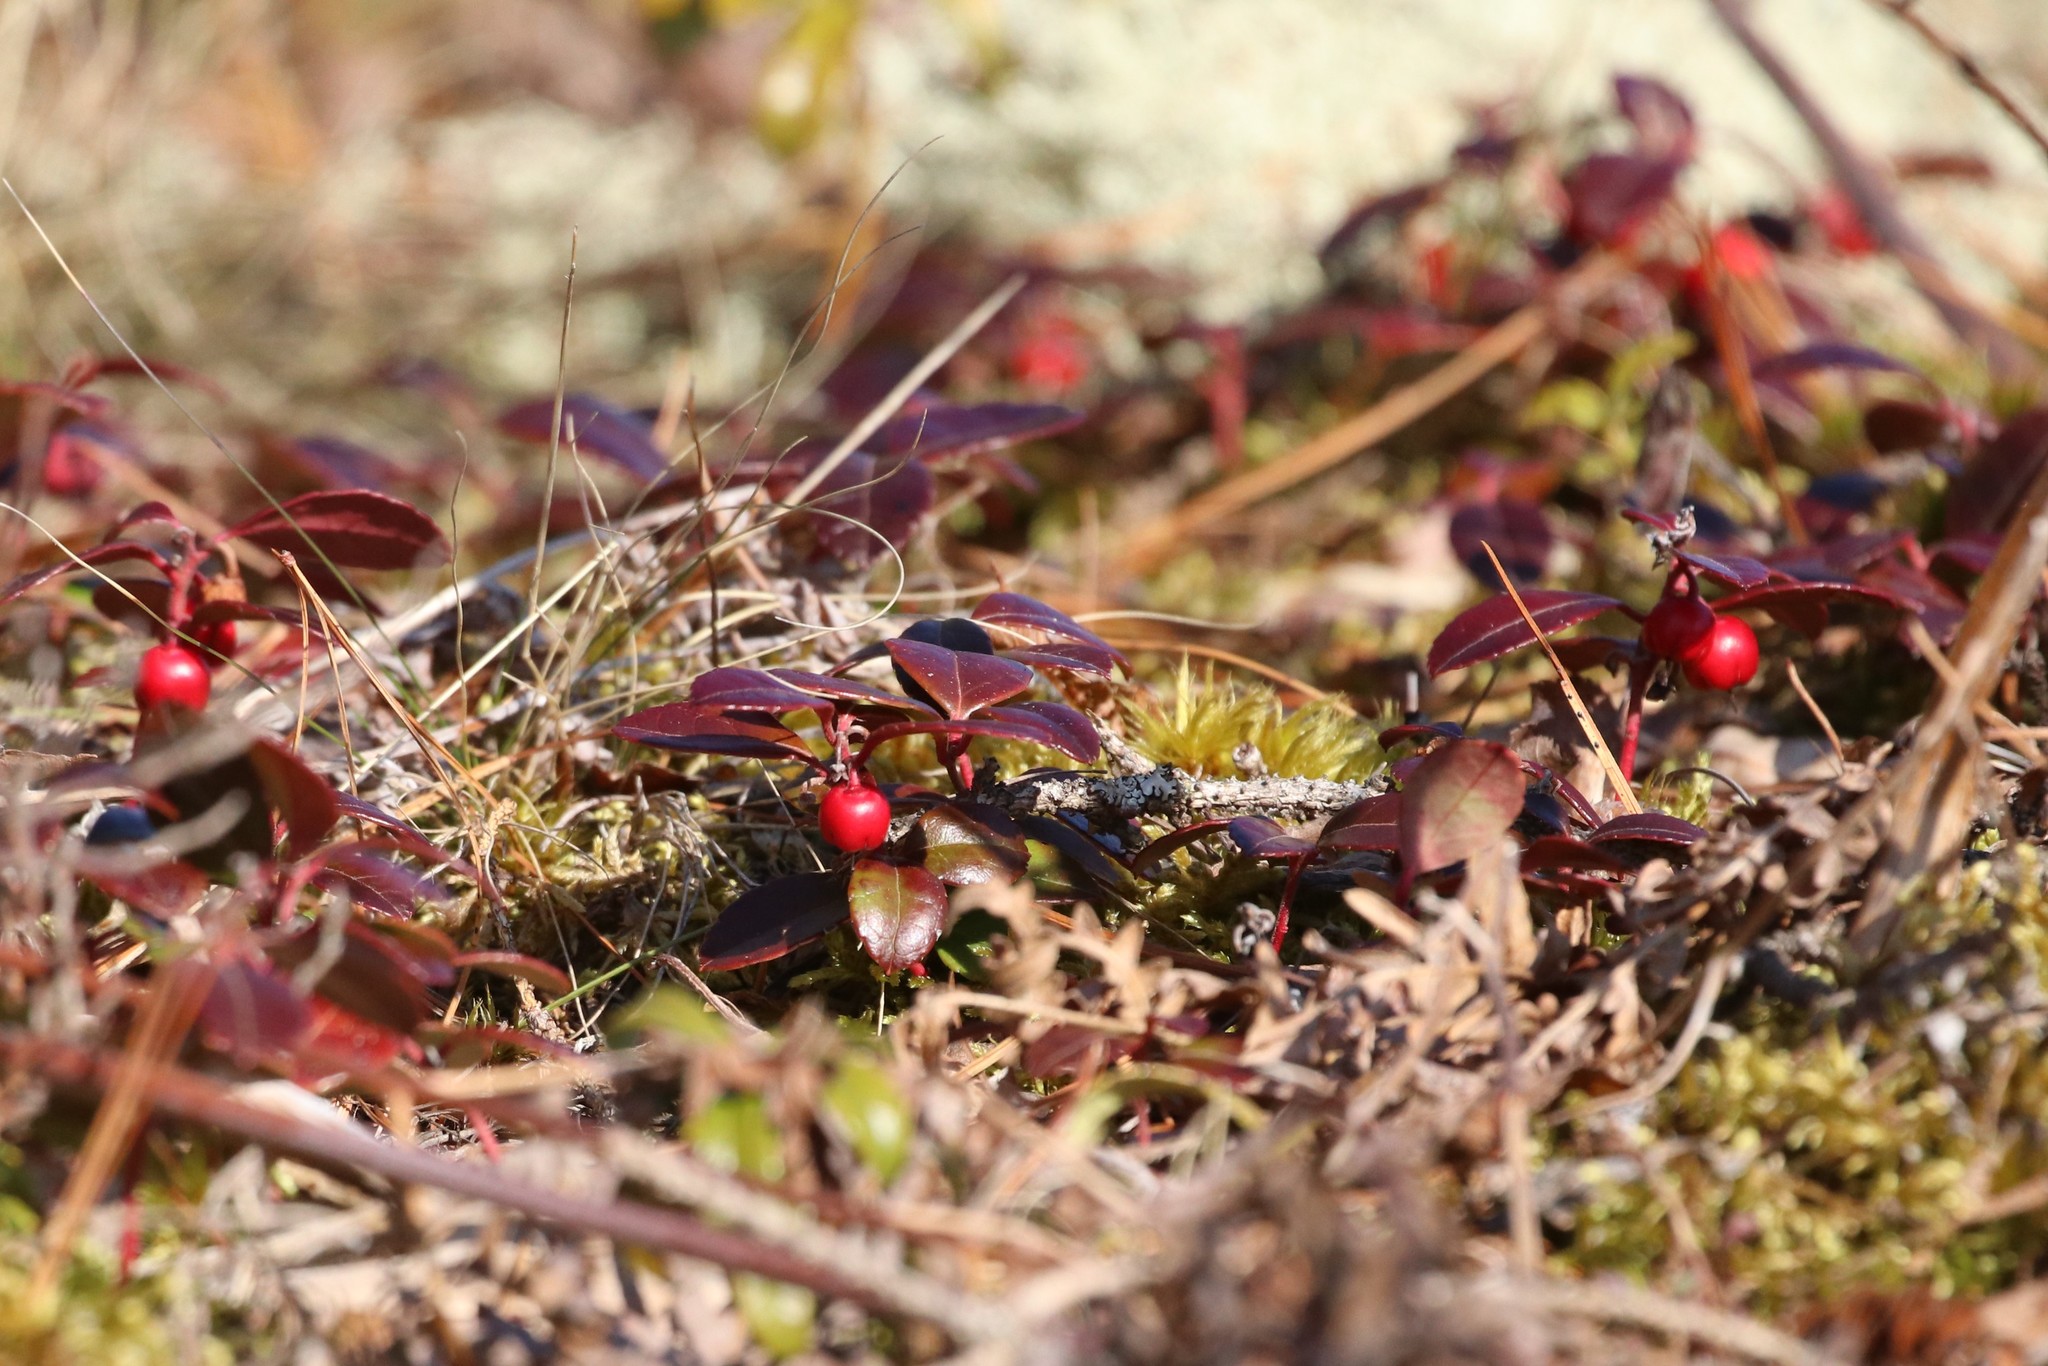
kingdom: Plantae
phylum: Tracheophyta
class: Magnoliopsida
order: Ericales
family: Ericaceae
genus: Gaultheria
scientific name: Gaultheria procumbens
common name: Checkerberry
